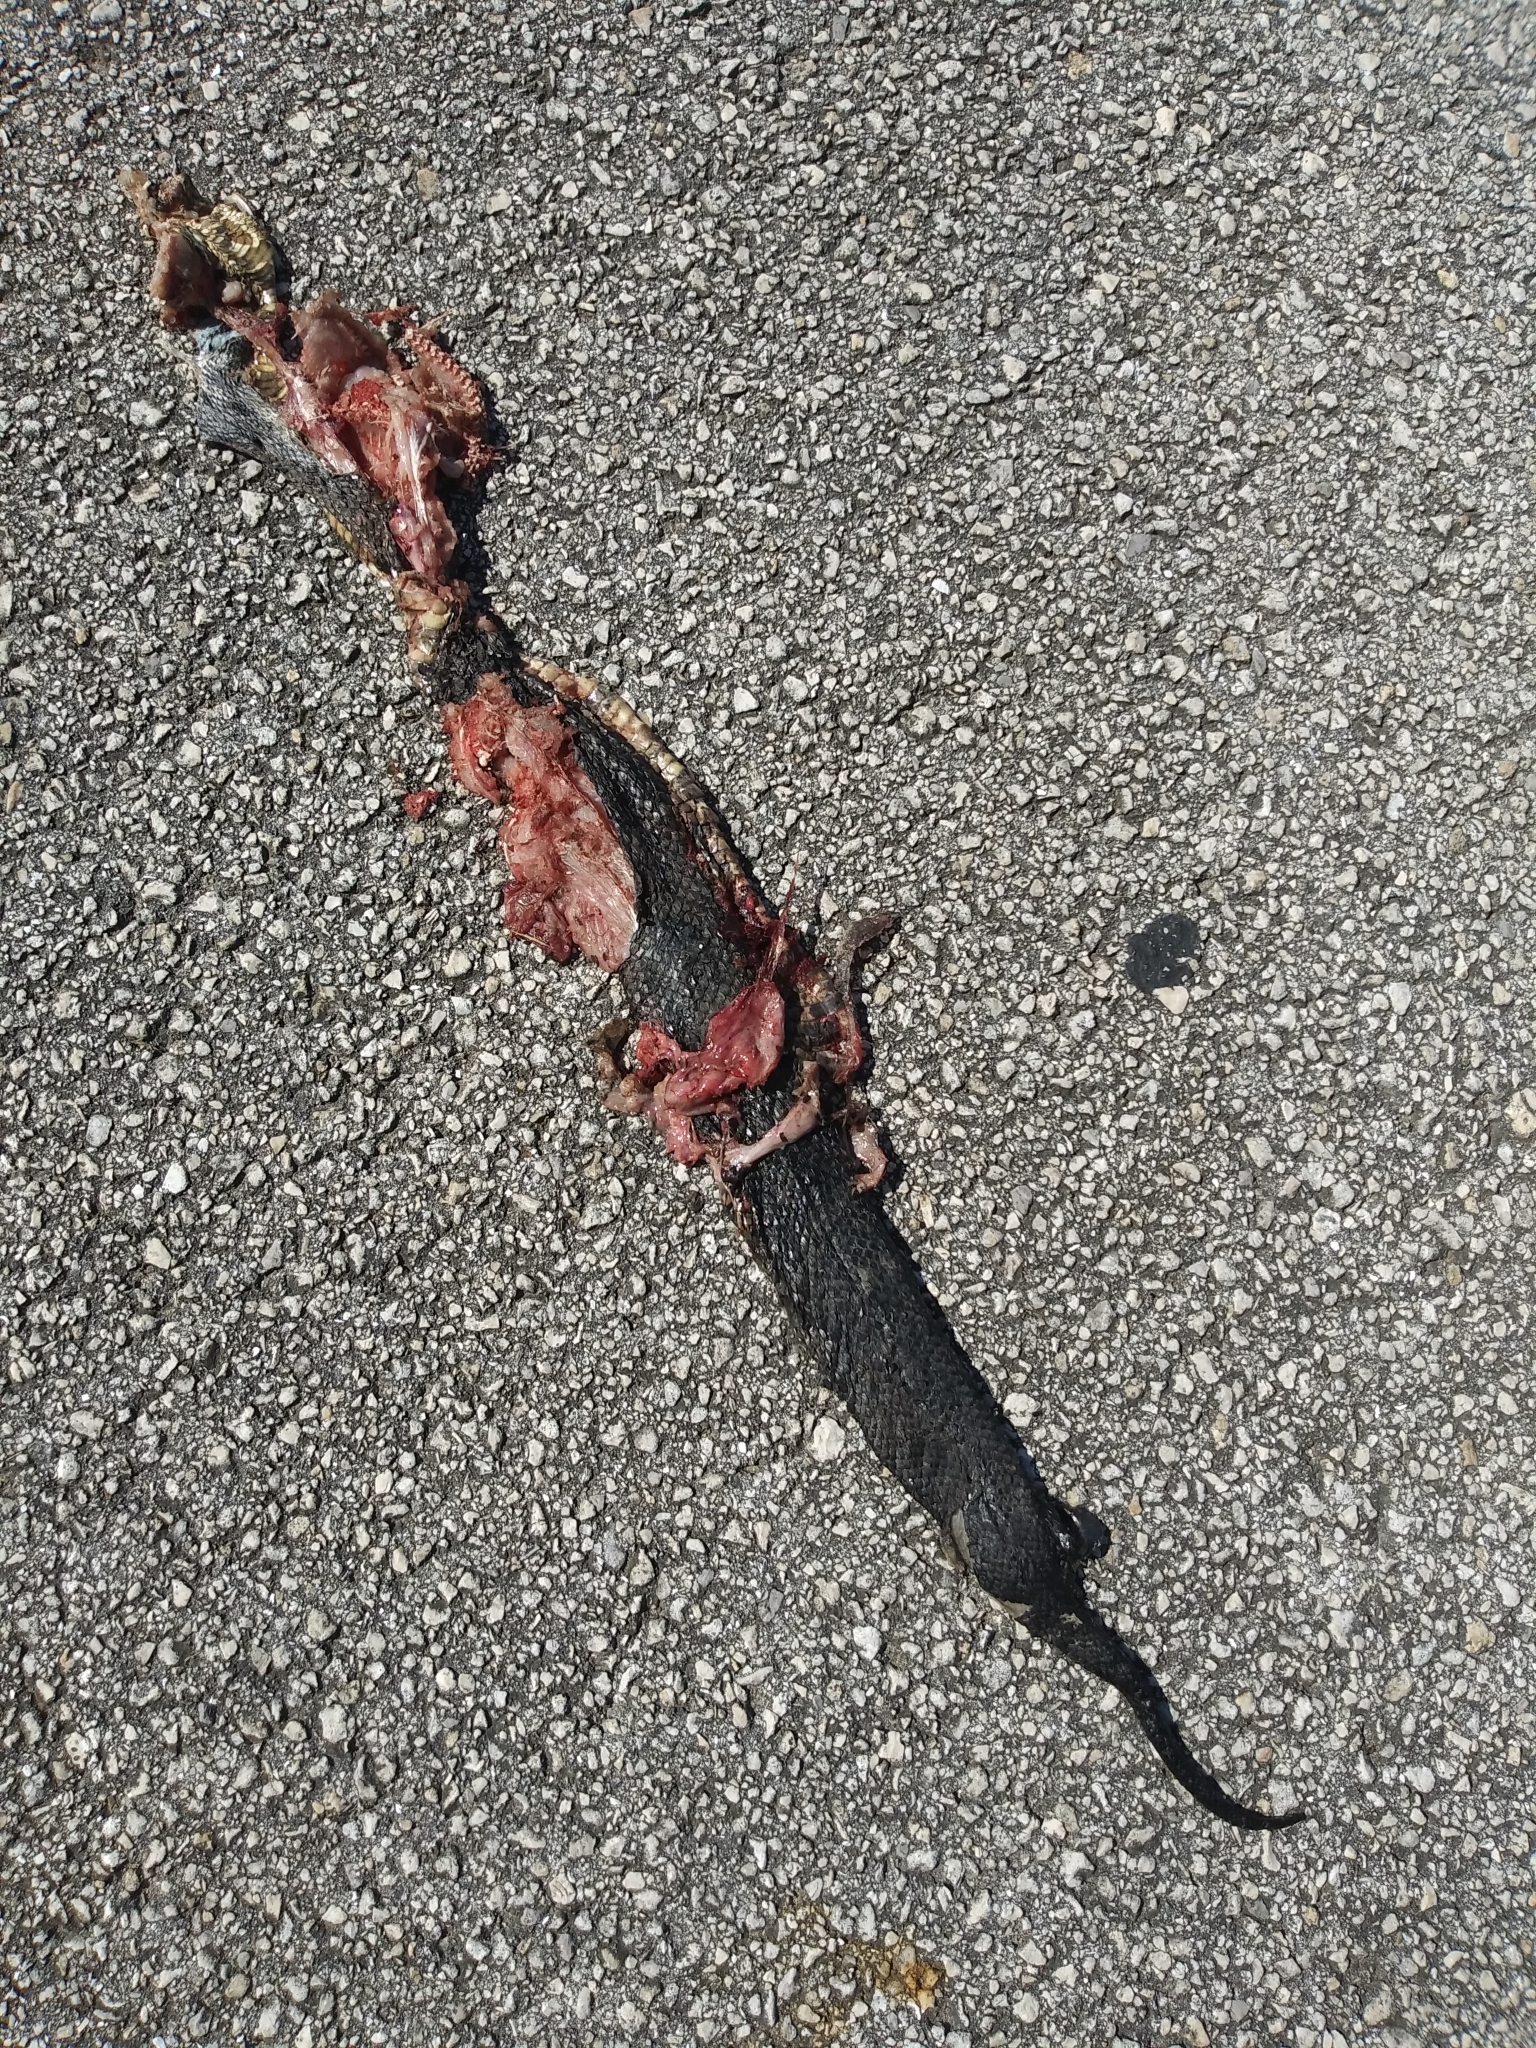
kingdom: Animalia
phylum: Chordata
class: Squamata
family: Viperidae
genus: Agkistrodon
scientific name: Agkistrodon conanti
